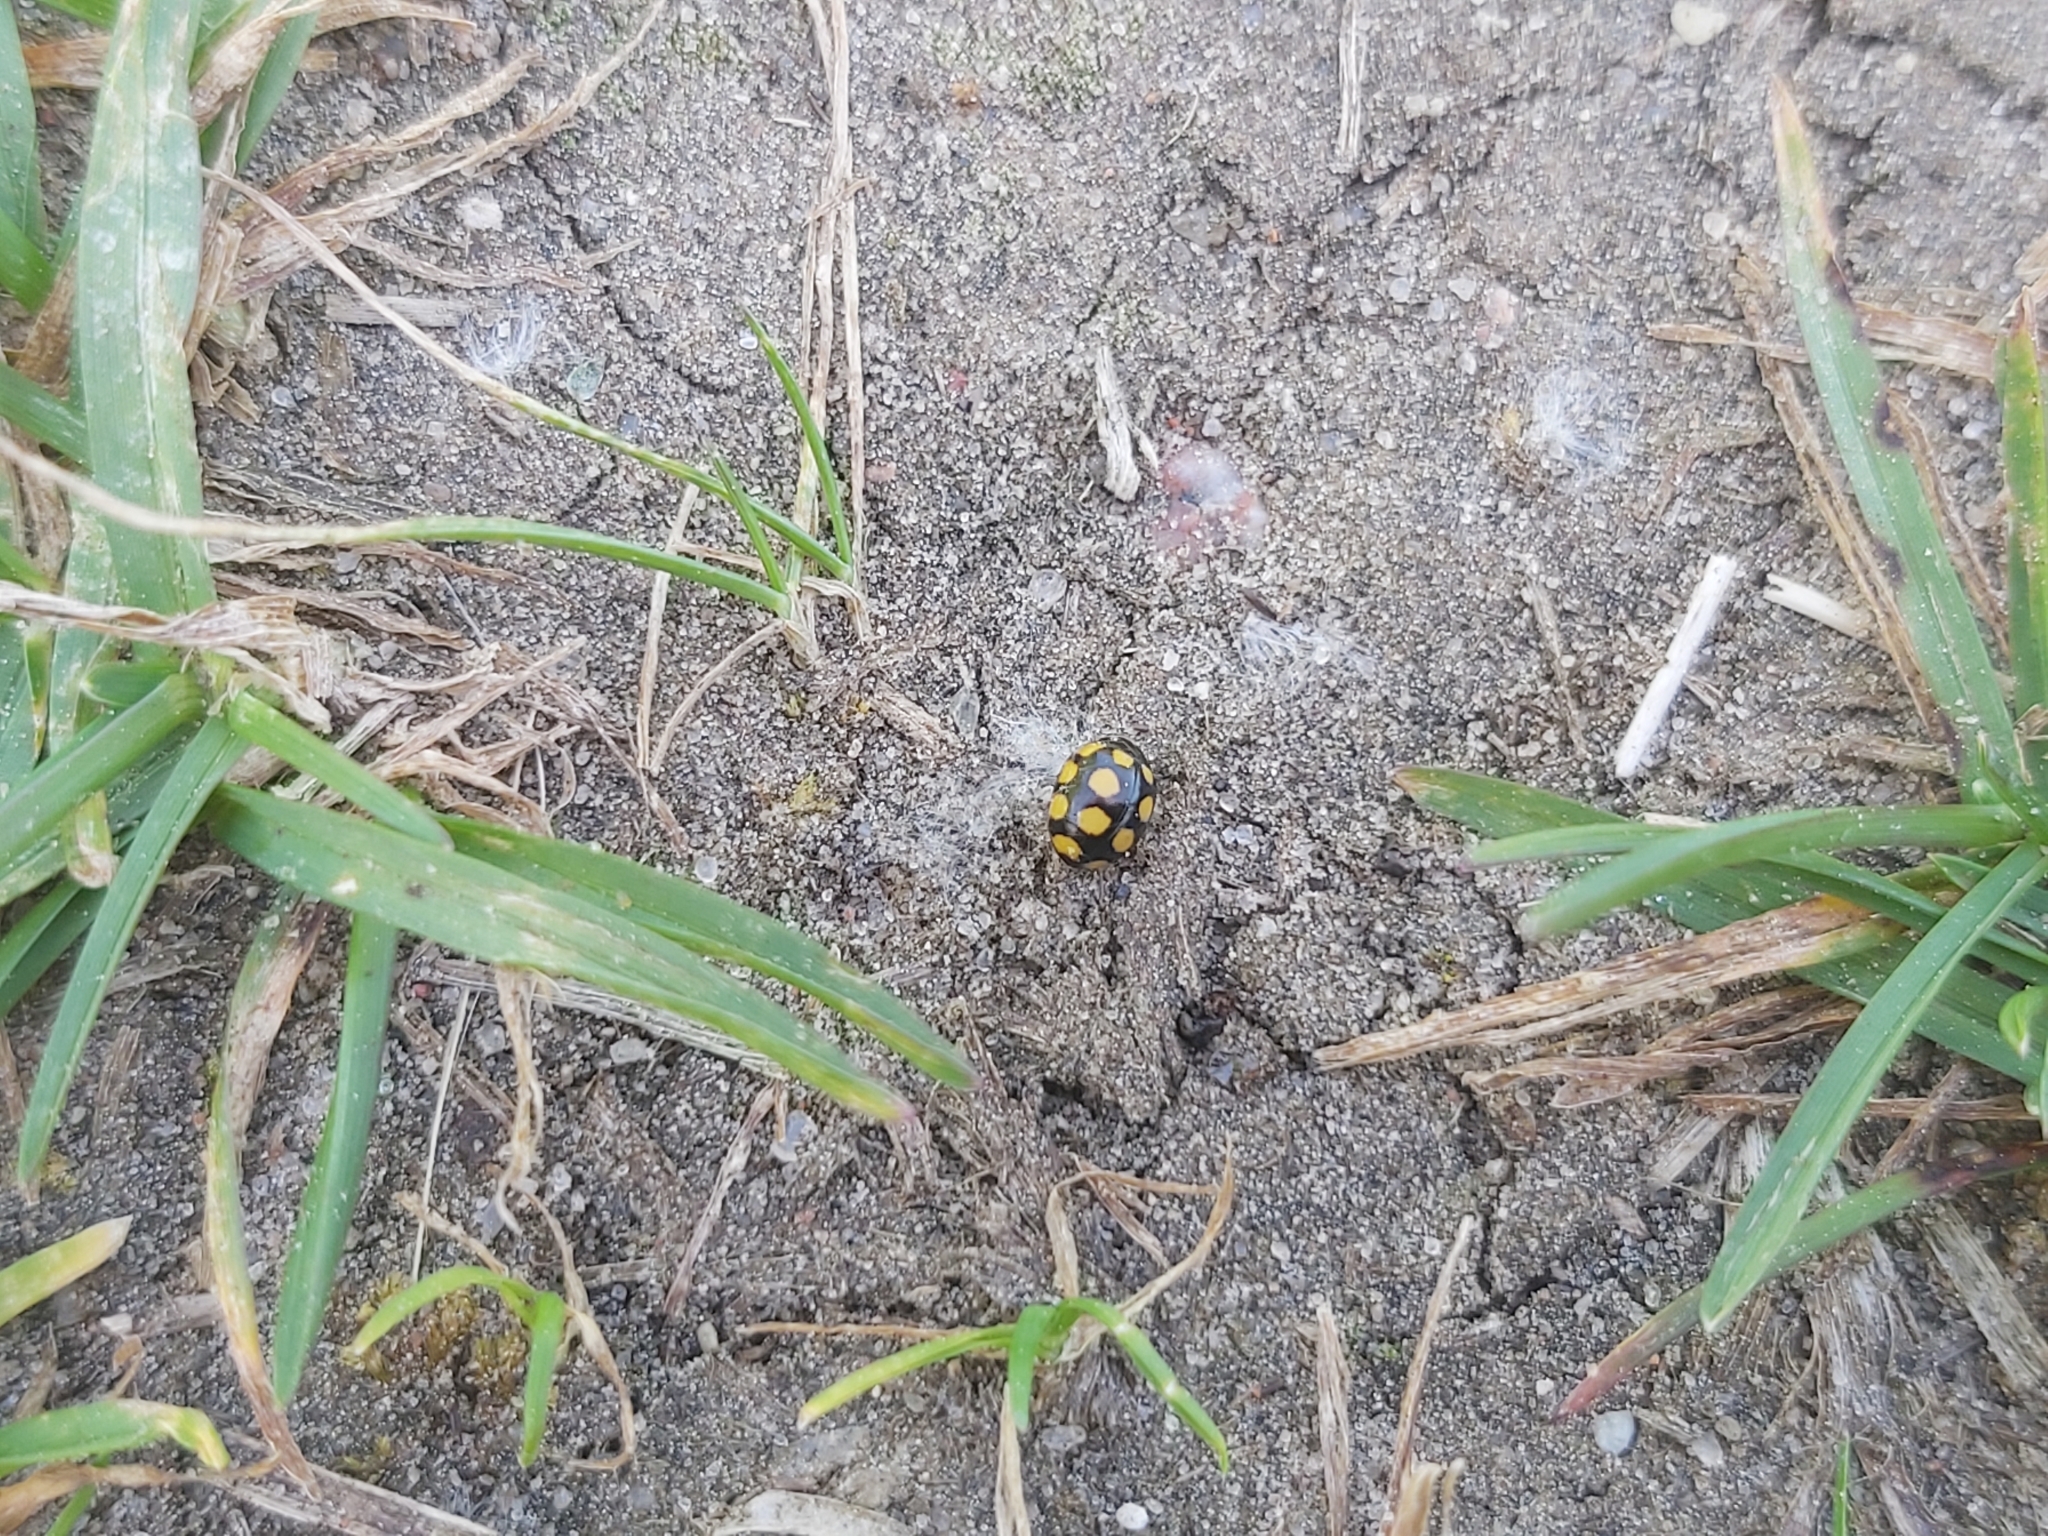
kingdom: Animalia
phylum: Arthropoda
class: Insecta
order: Coleoptera
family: Coccinellidae
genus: Coccinula
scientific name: Coccinula quatuordecimpustulata
